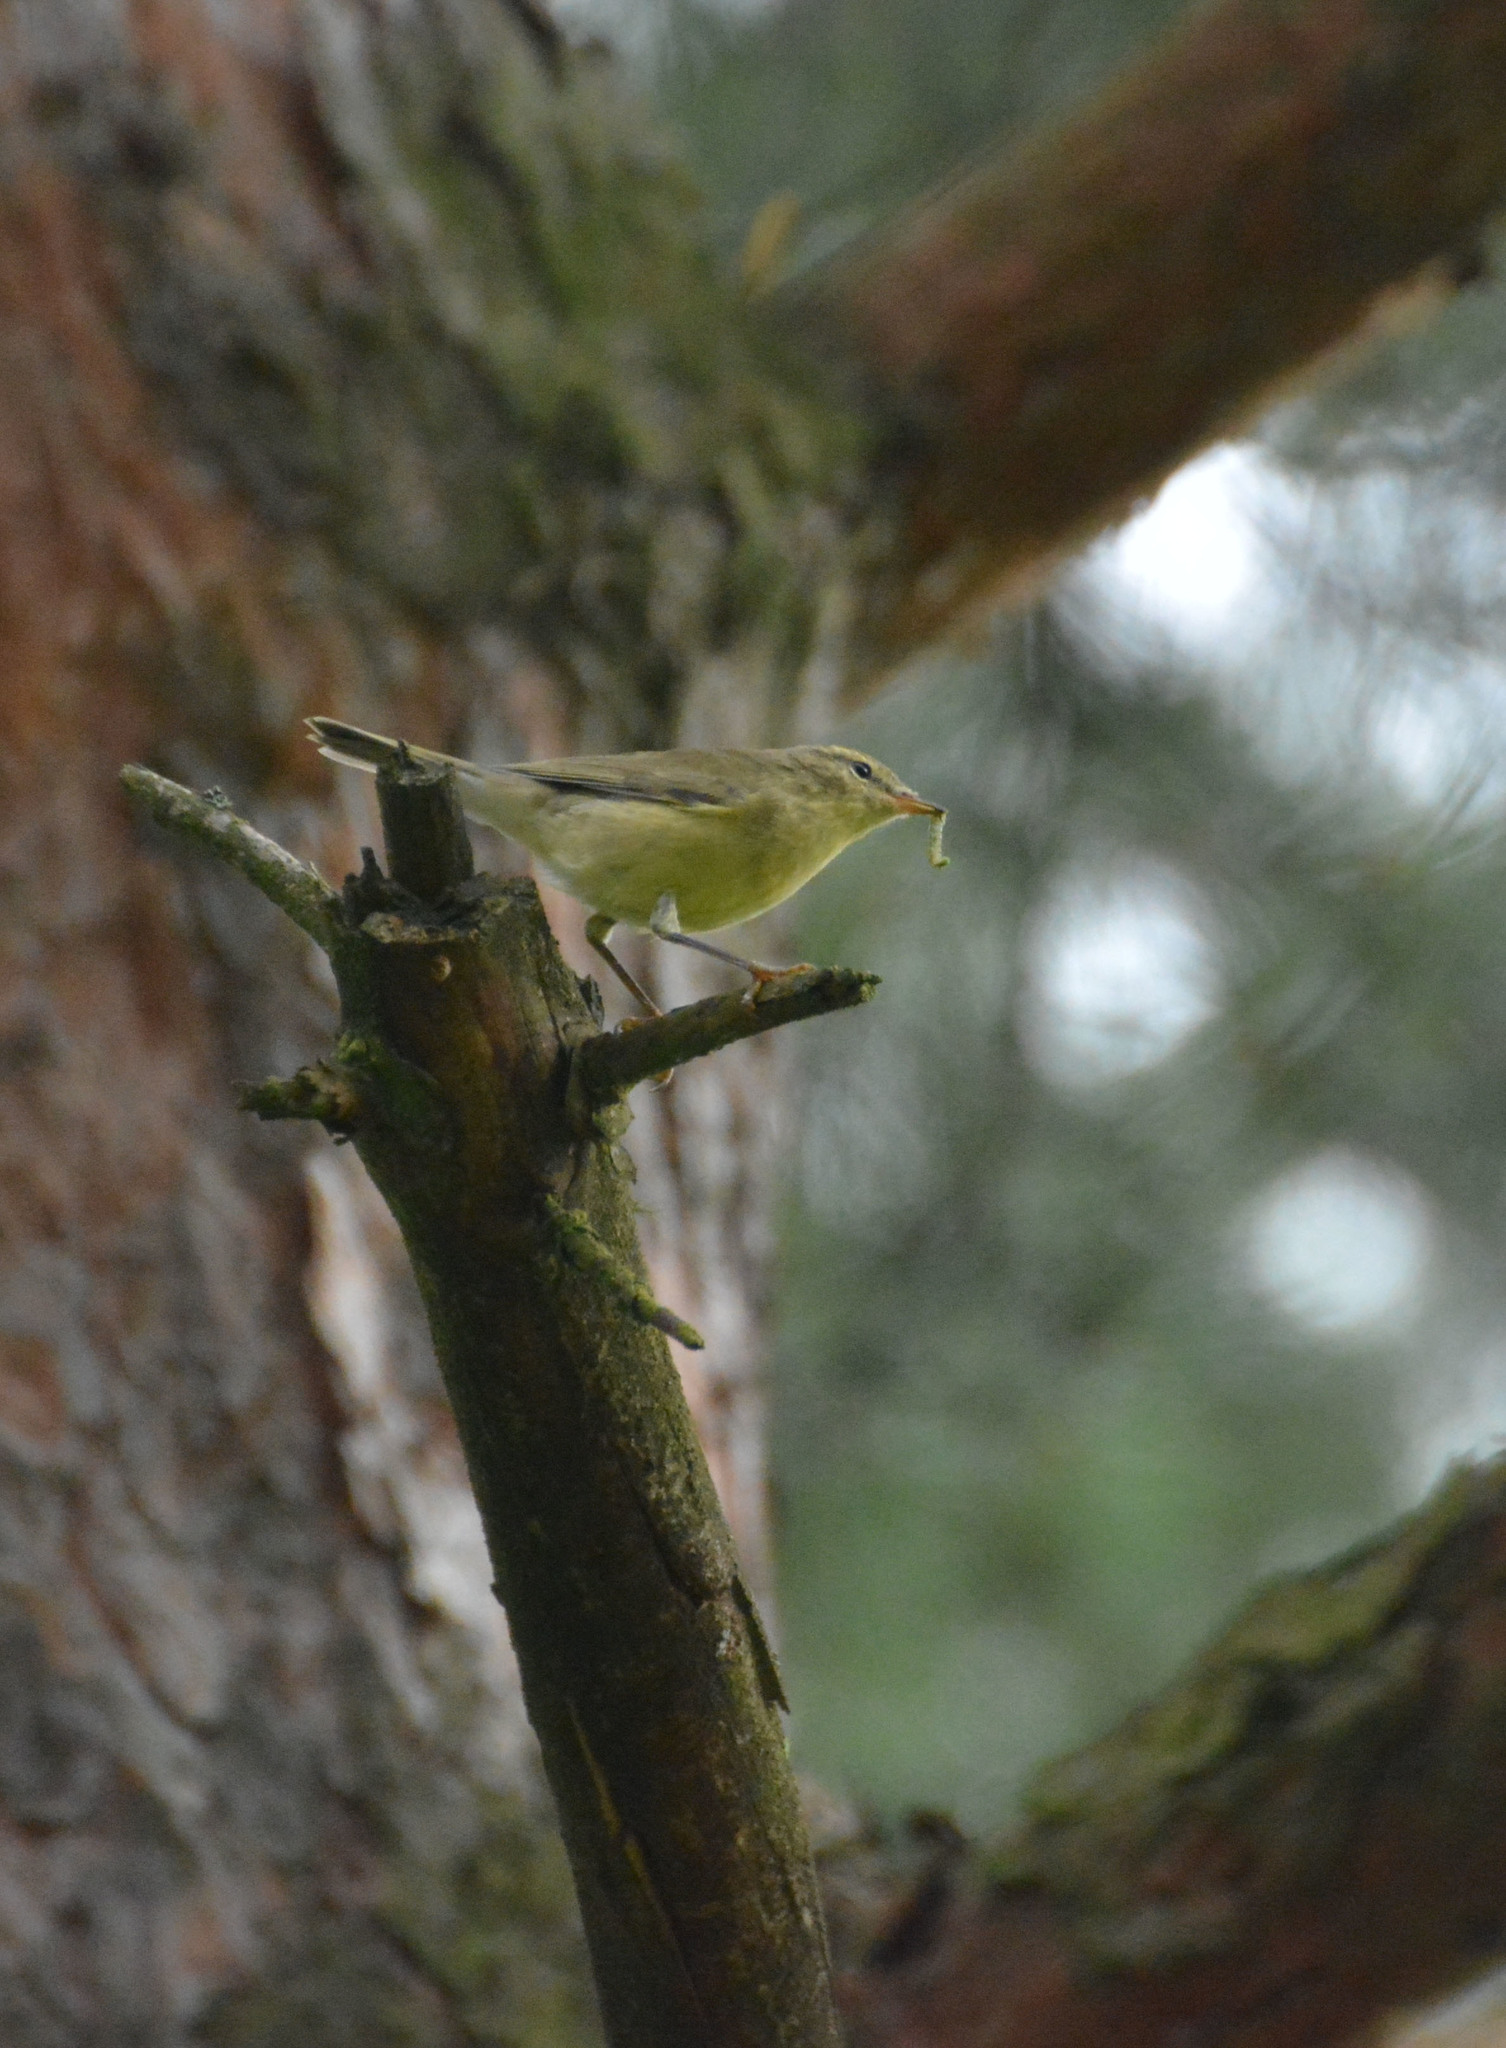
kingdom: Animalia
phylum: Chordata
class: Aves
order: Passeriformes
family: Phylloscopidae
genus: Phylloscopus
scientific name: Phylloscopus trochilus
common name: Willow warbler
